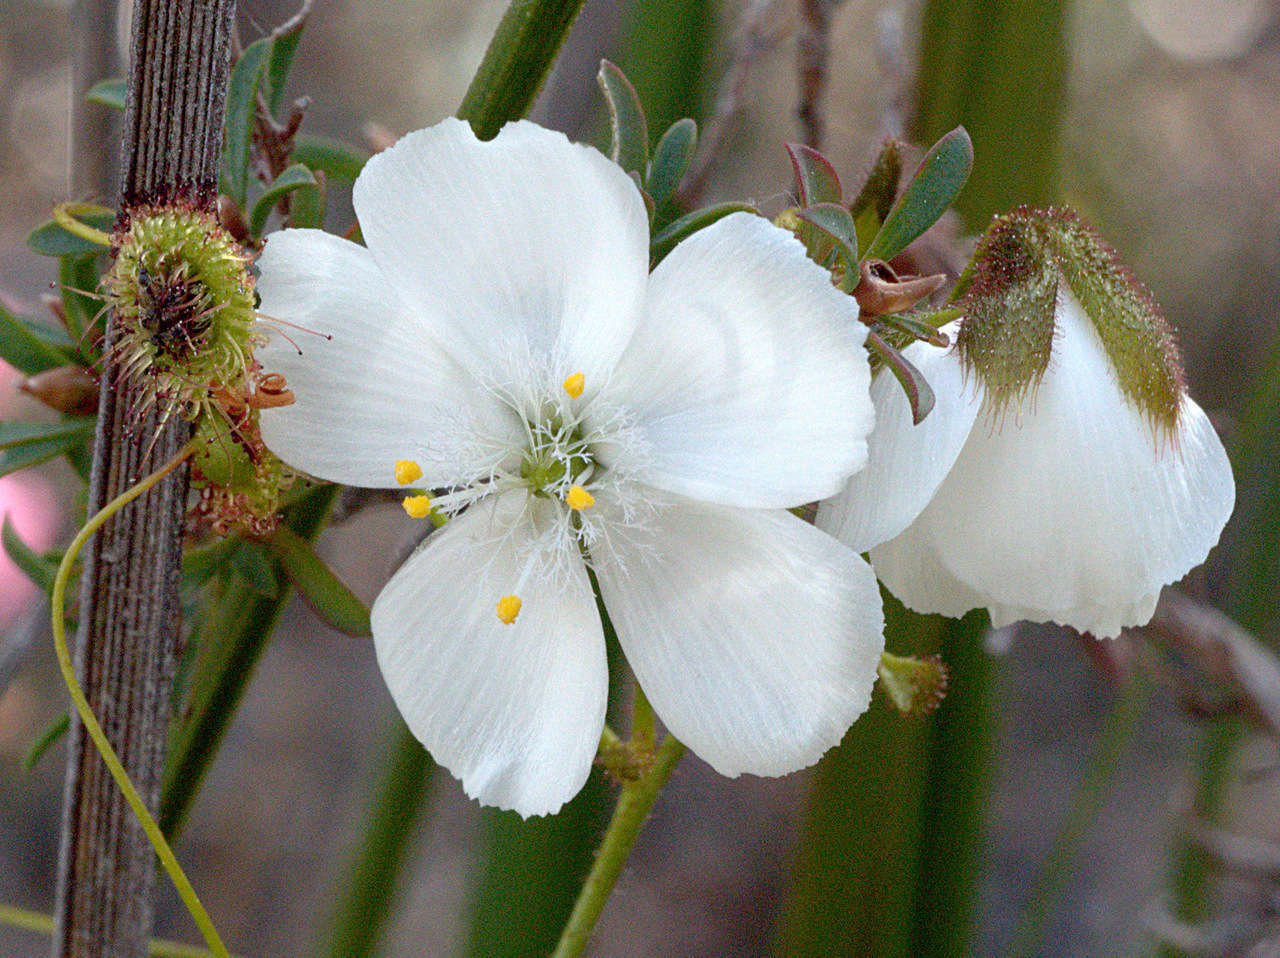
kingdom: Plantae
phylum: Tracheophyta
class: Magnoliopsida
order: Caryophyllales
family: Droseraceae
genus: Drosera
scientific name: Drosera planchonii
